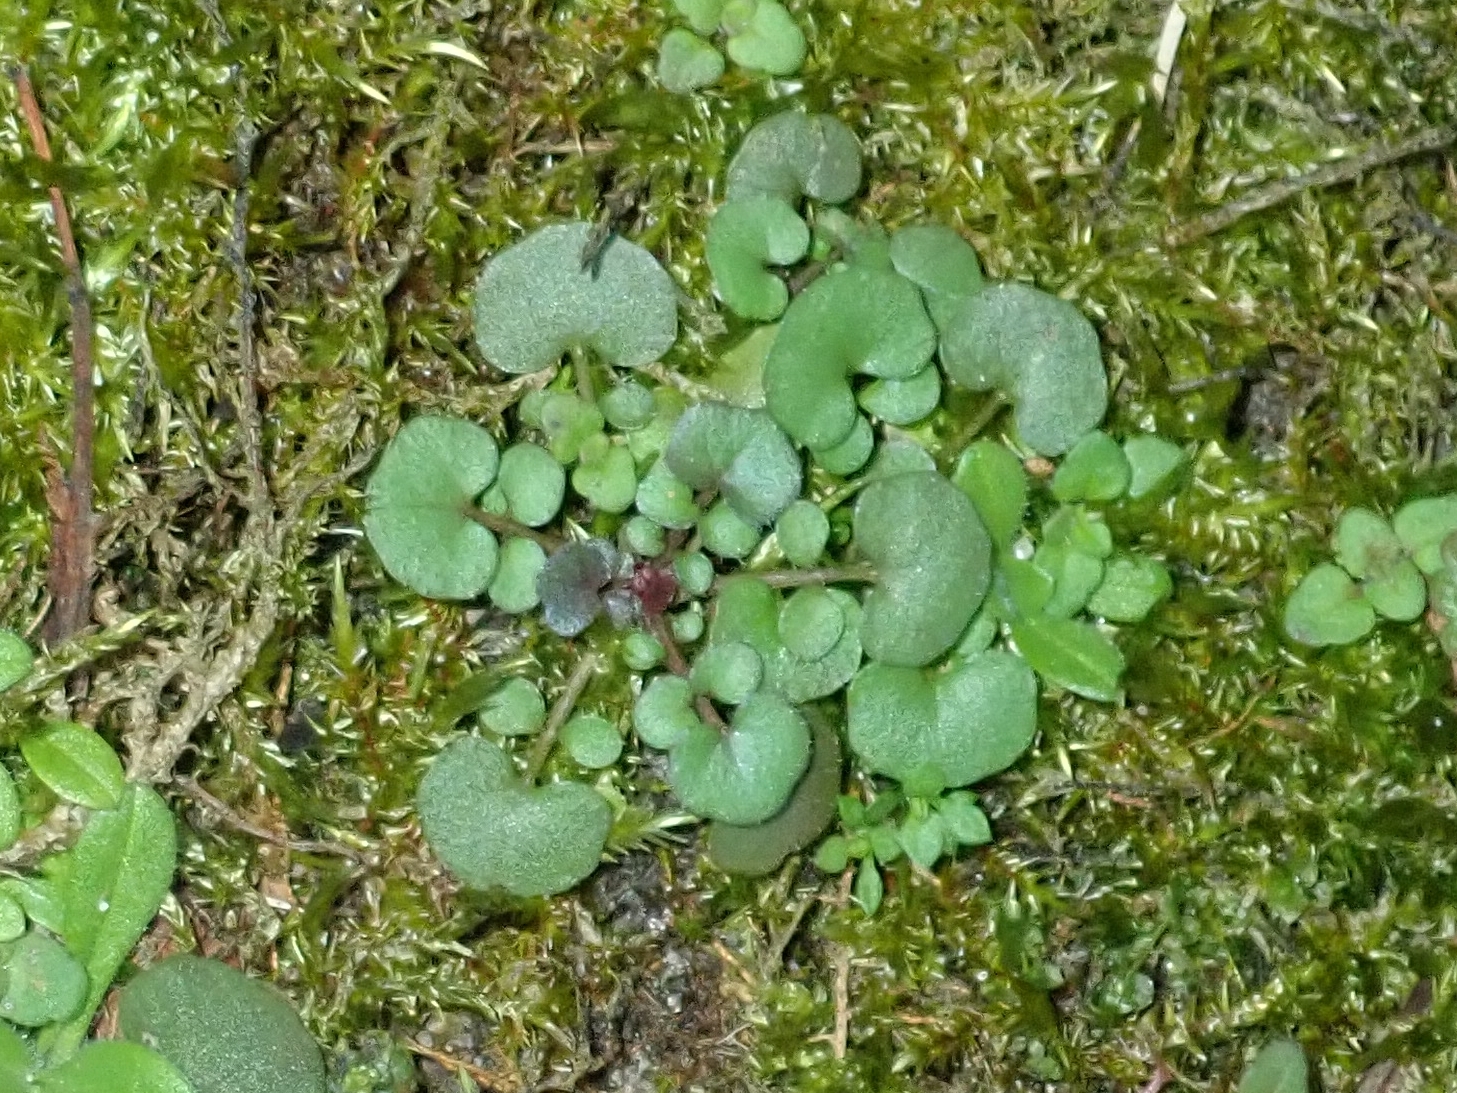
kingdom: Plantae
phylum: Tracheophyta
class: Magnoliopsida
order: Brassicales
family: Brassicaceae
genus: Cardamine
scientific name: Cardamine hirsuta
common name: Hairy bittercress
